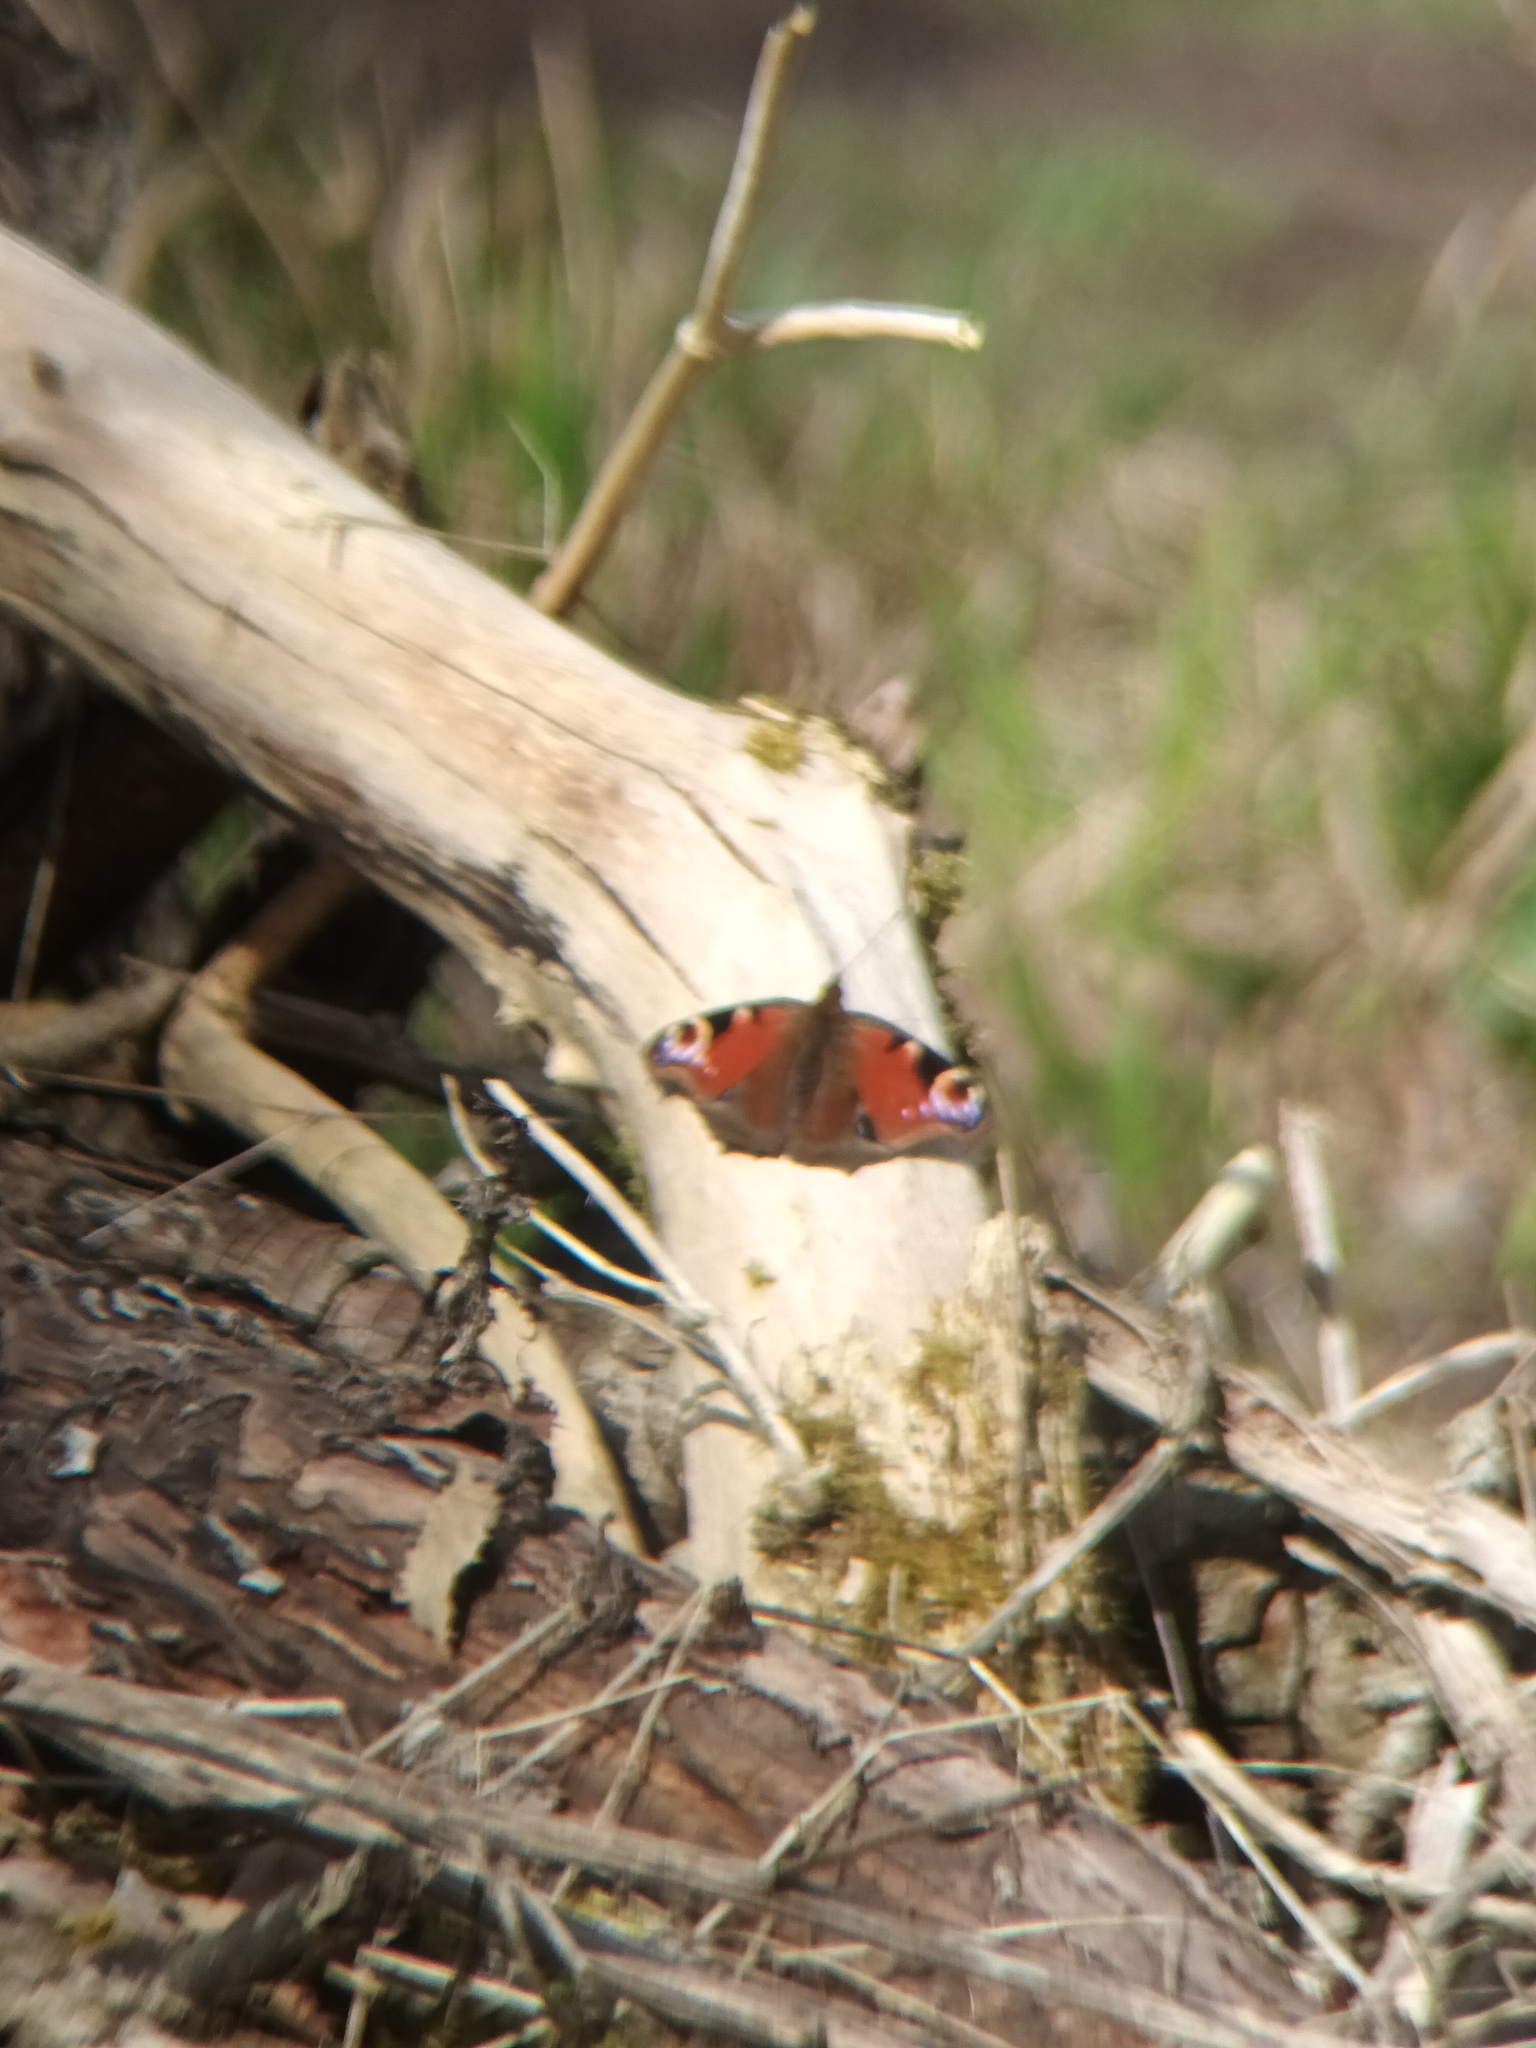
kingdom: Animalia
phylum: Arthropoda
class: Insecta
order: Lepidoptera
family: Nymphalidae
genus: Aglais
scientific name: Aglais io
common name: Peacock
